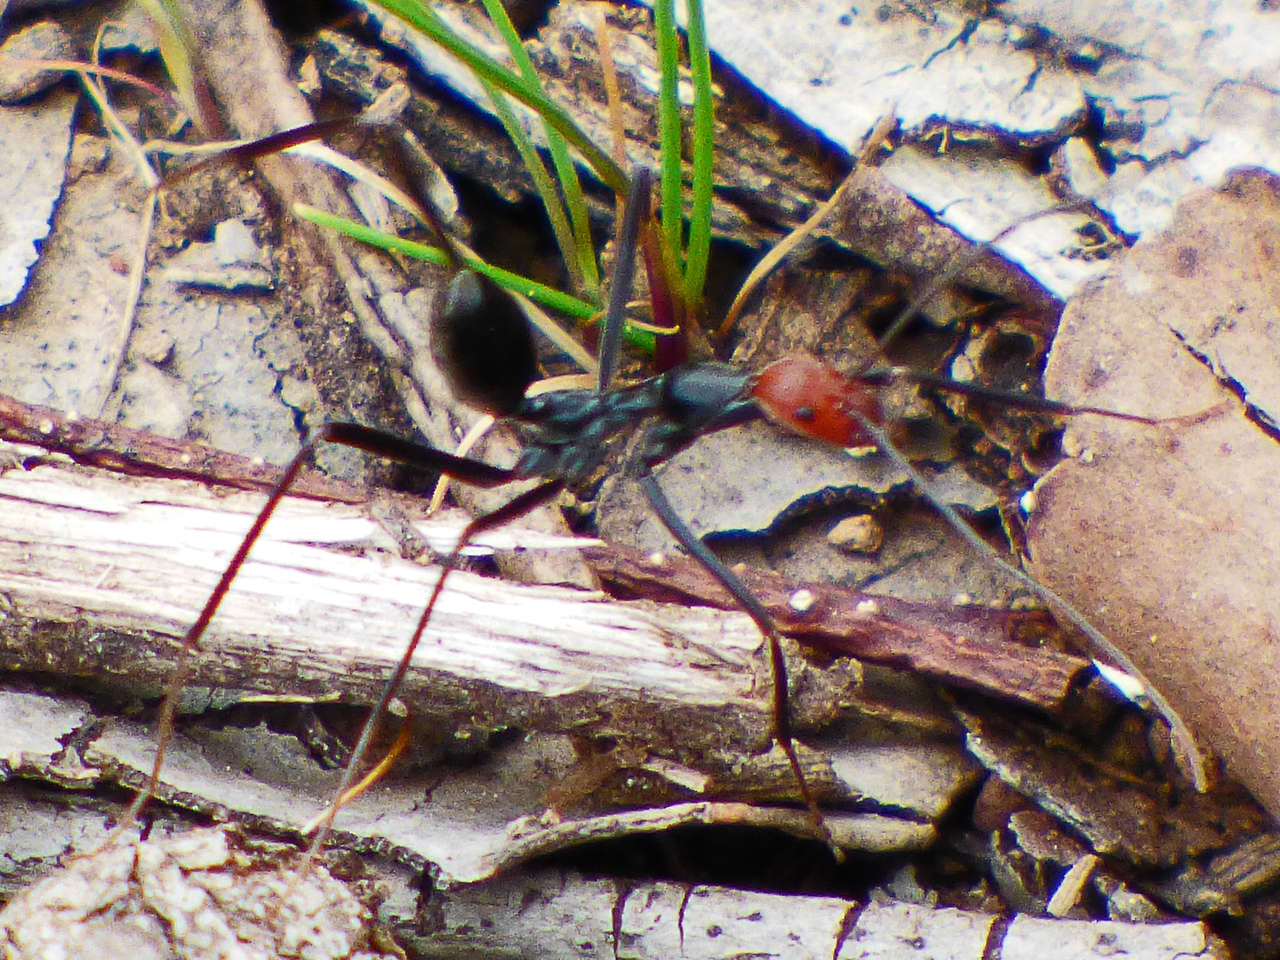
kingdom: Animalia
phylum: Arthropoda
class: Insecta
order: Hymenoptera
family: Formicidae
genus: Leptomyrmex
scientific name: Leptomyrmex erythrocephalus
